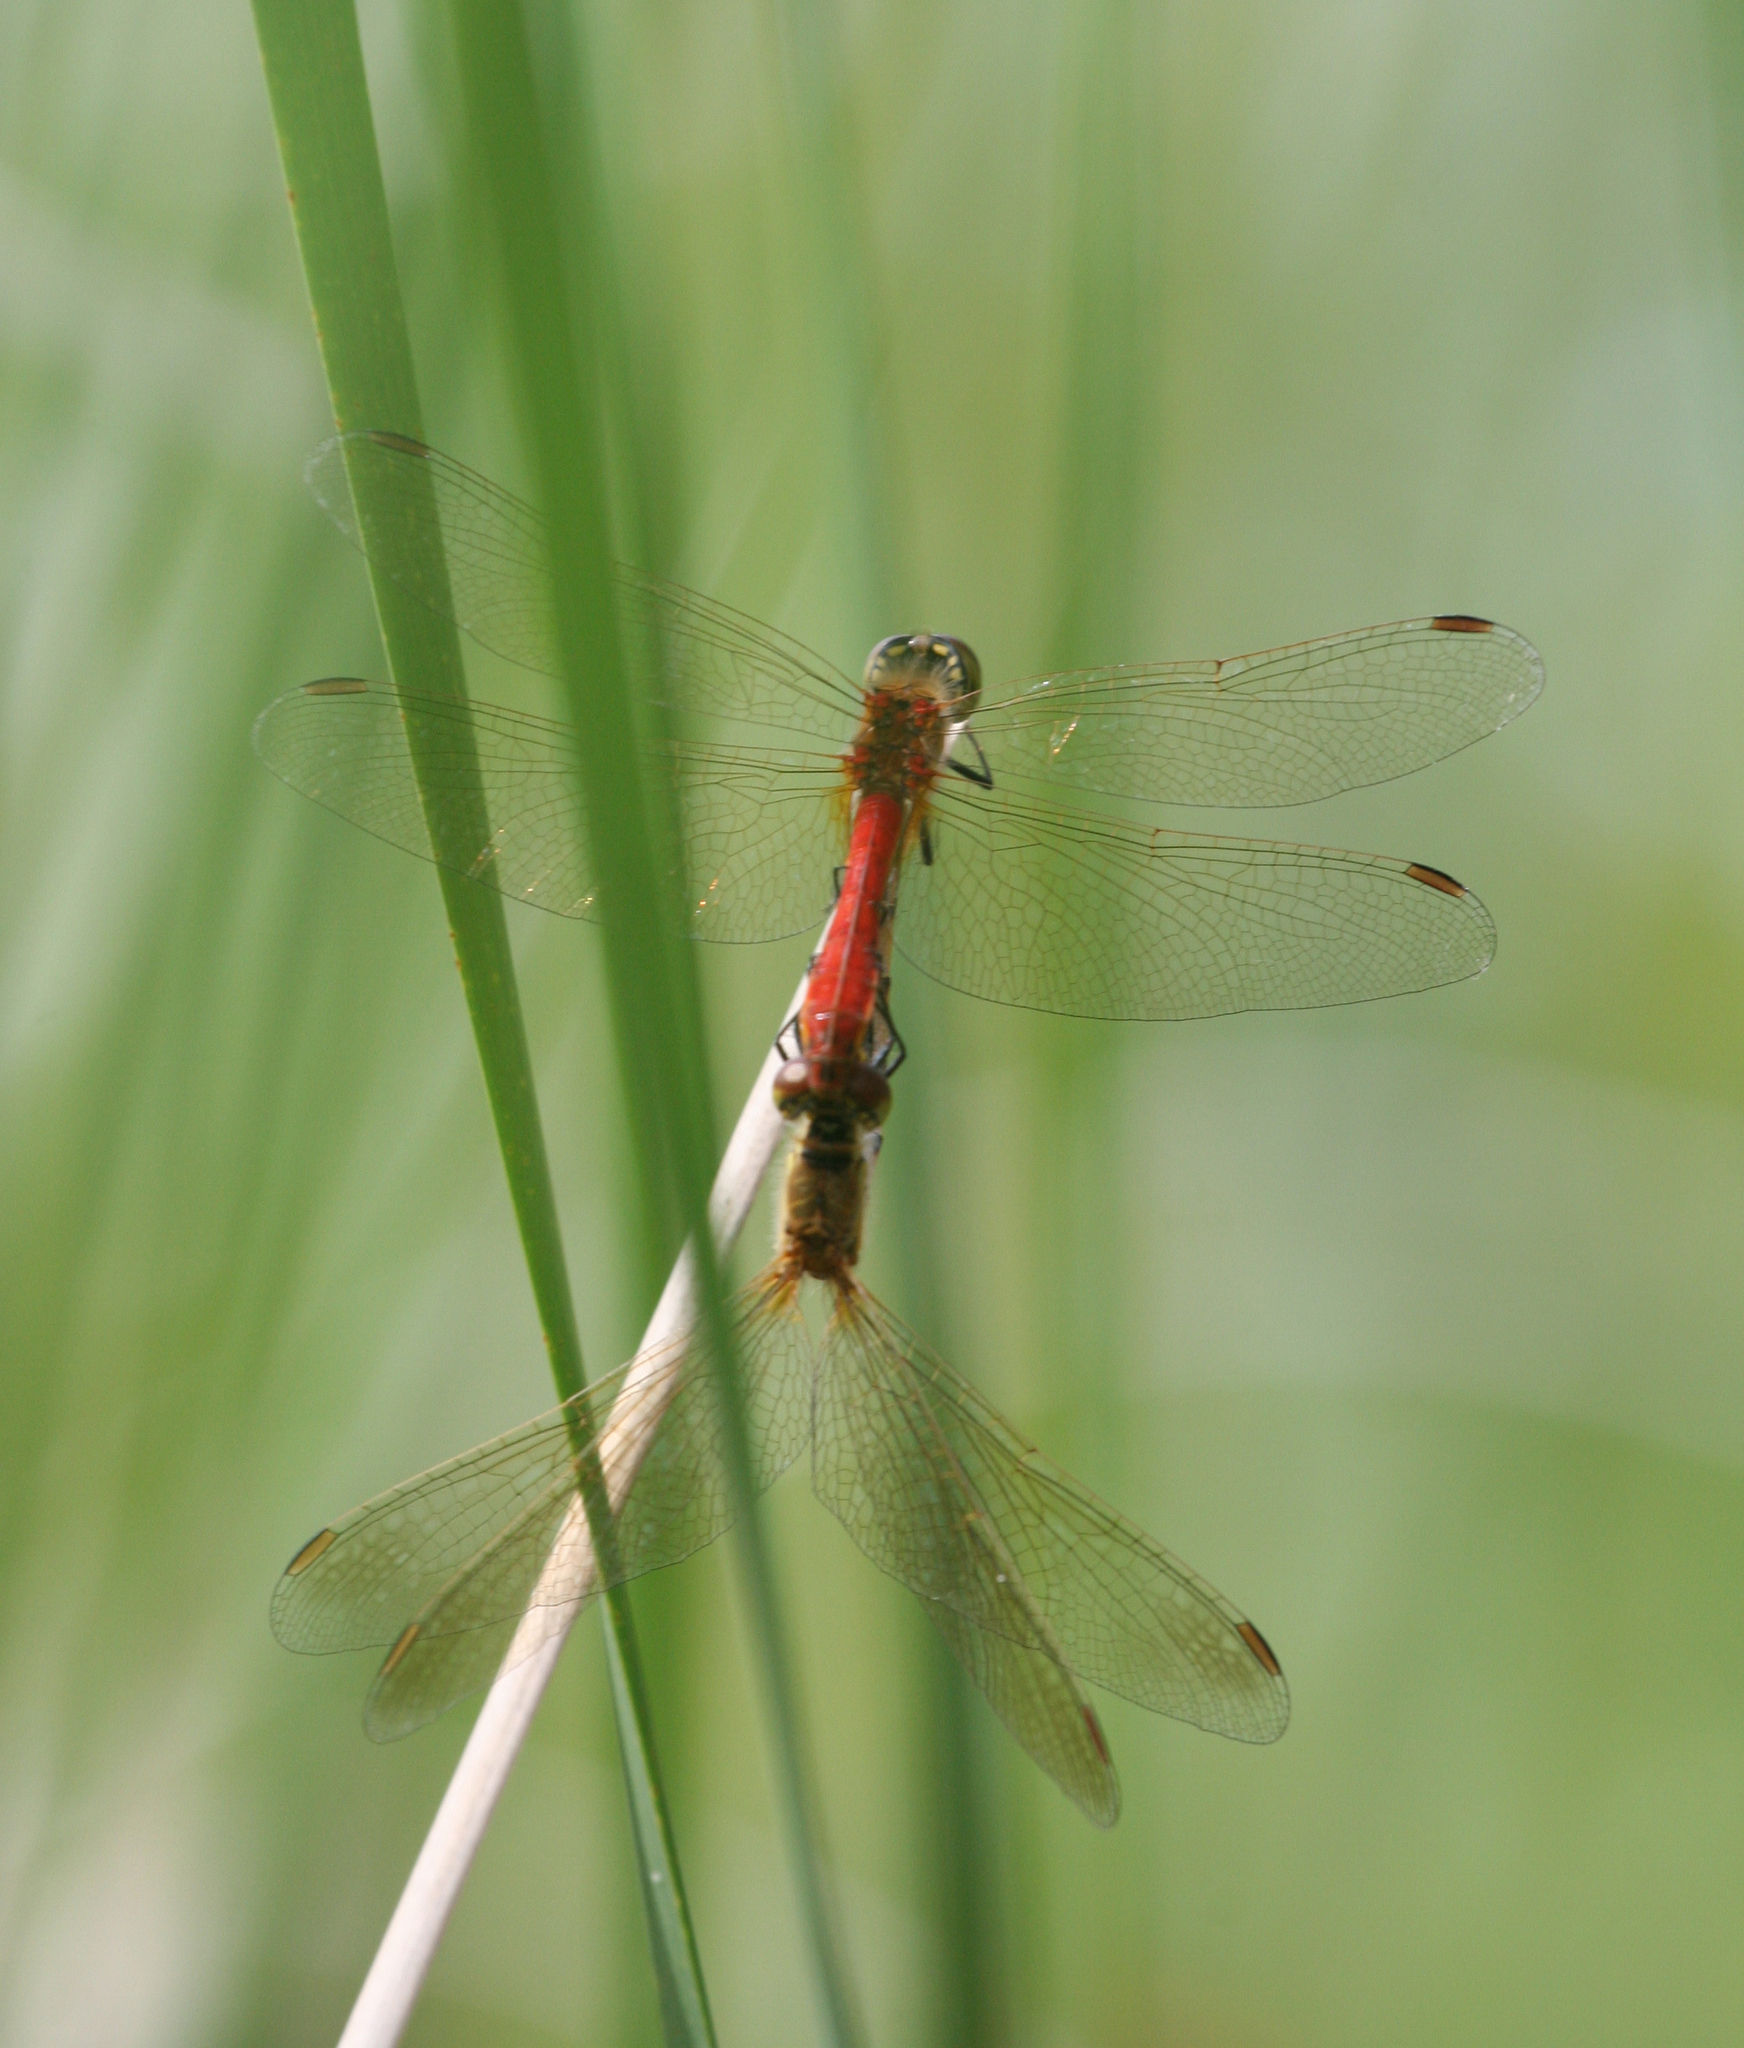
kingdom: Animalia
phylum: Arthropoda
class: Insecta
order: Odonata
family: Libellulidae
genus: Sympetrum
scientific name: Sympetrum depressiusculum
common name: Spotted darter
